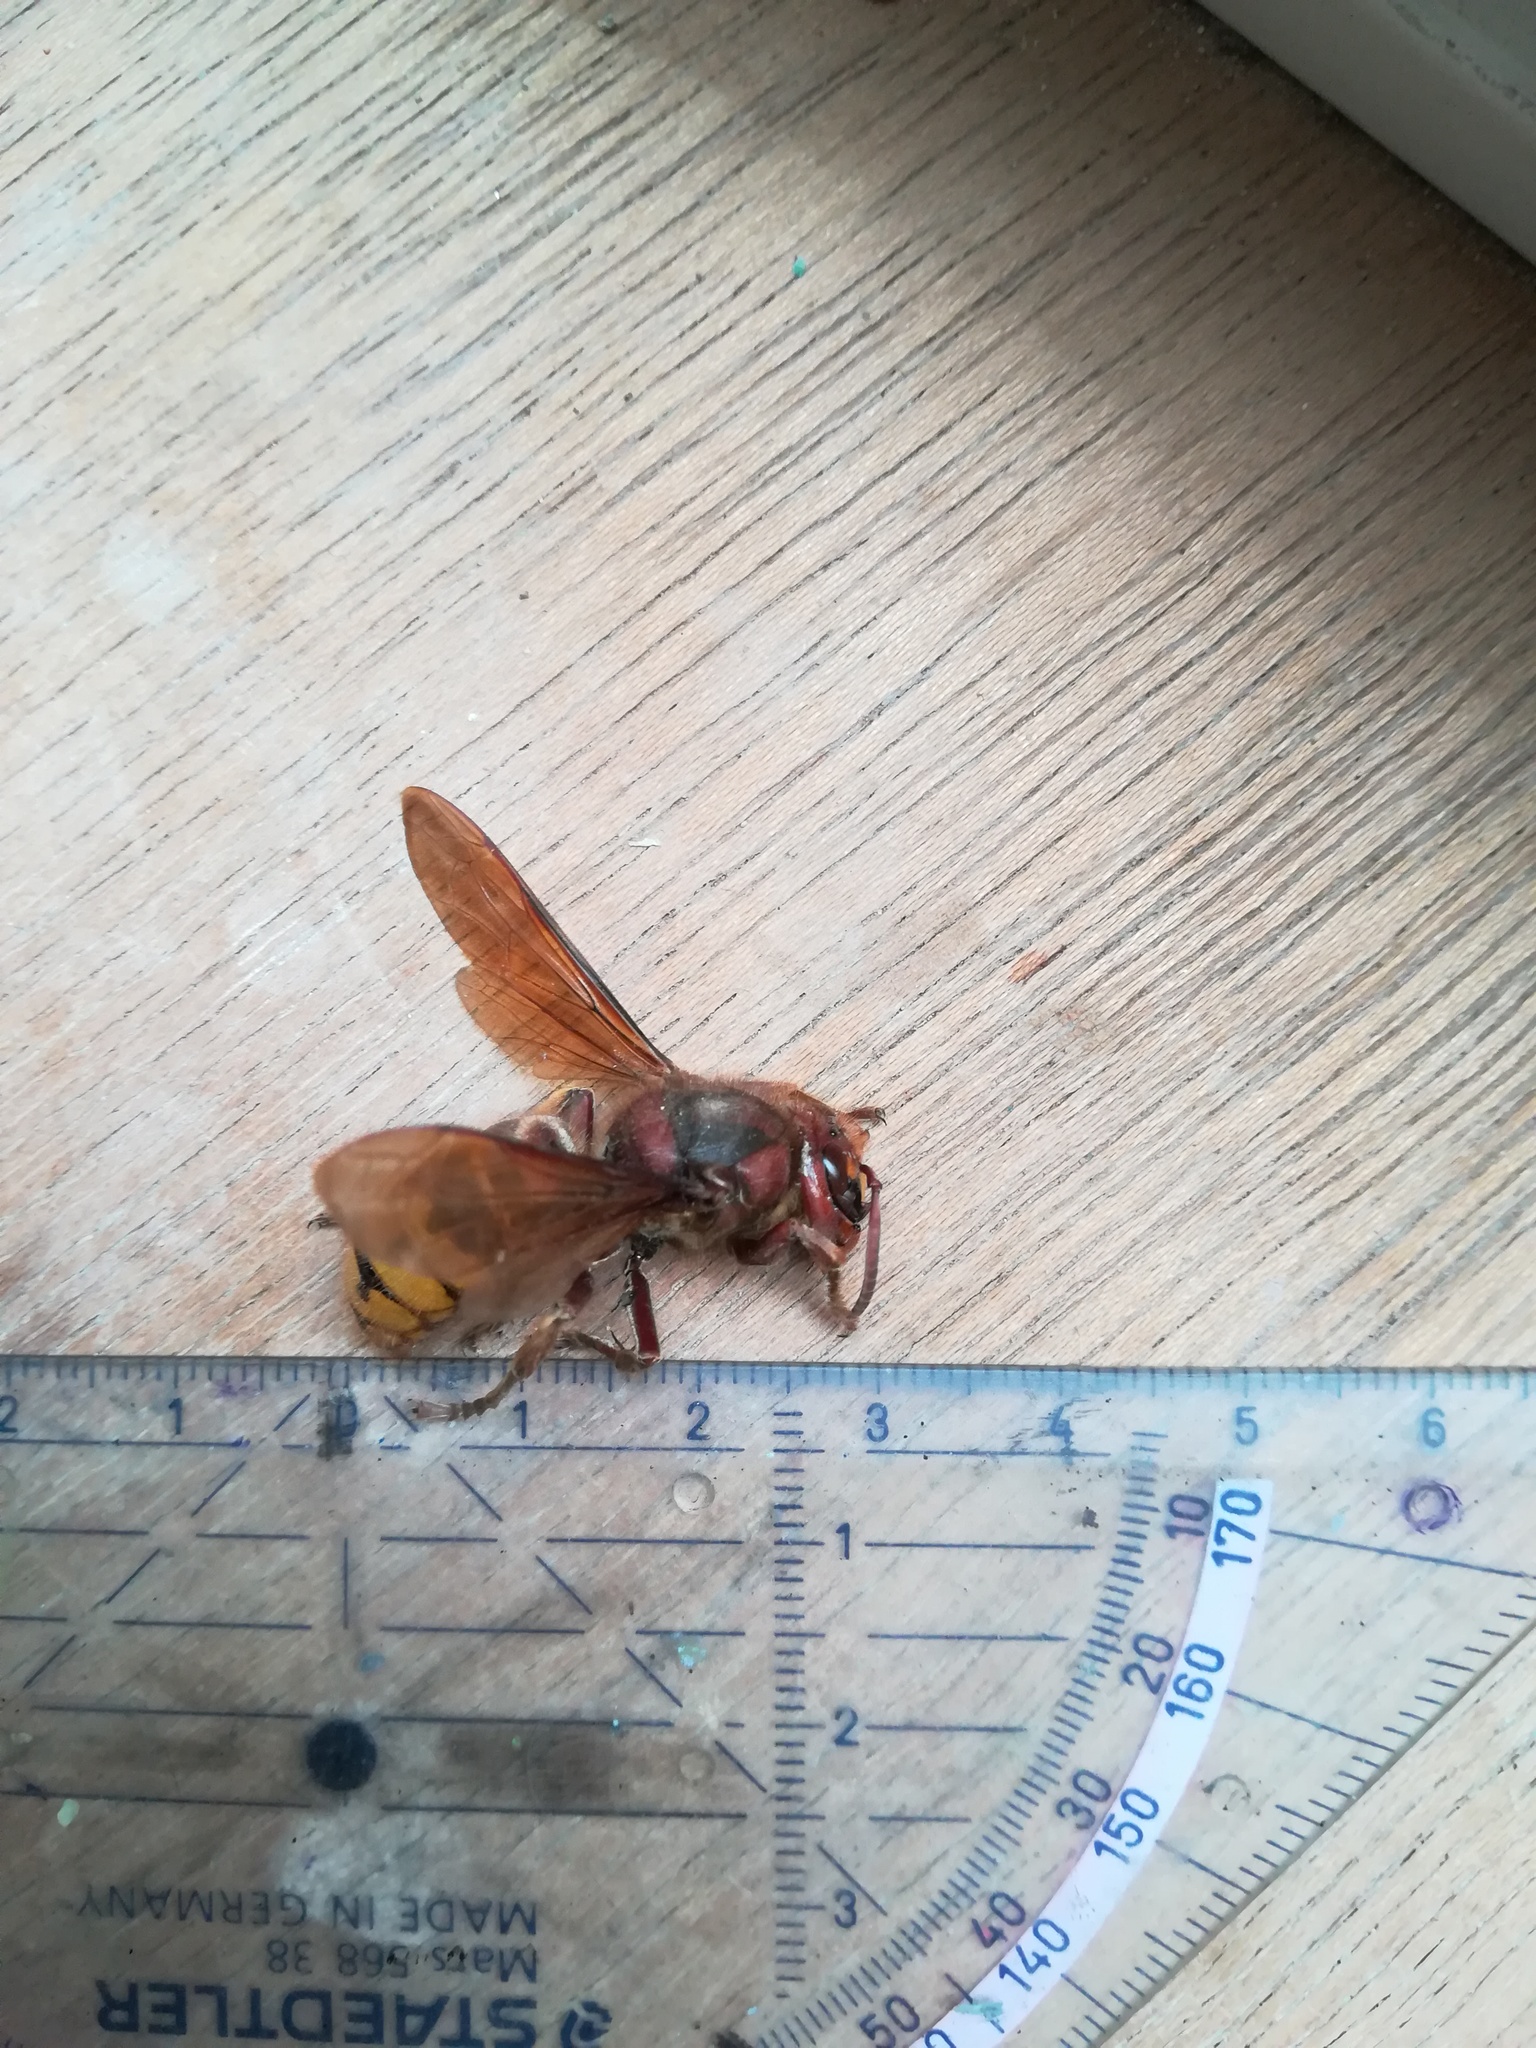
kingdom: Animalia
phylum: Arthropoda
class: Insecta
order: Hymenoptera
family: Vespidae
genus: Vespa
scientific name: Vespa crabro
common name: Hornet
